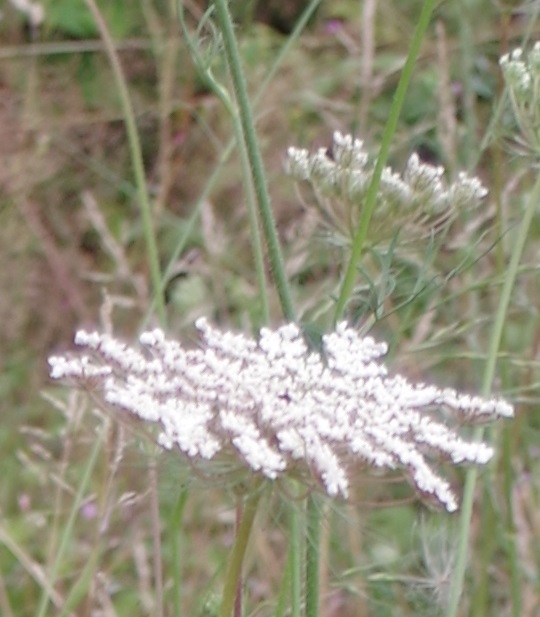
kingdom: Plantae
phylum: Tracheophyta
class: Magnoliopsida
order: Apiales
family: Apiaceae
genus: Daucus
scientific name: Daucus carota
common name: Wild carrot
